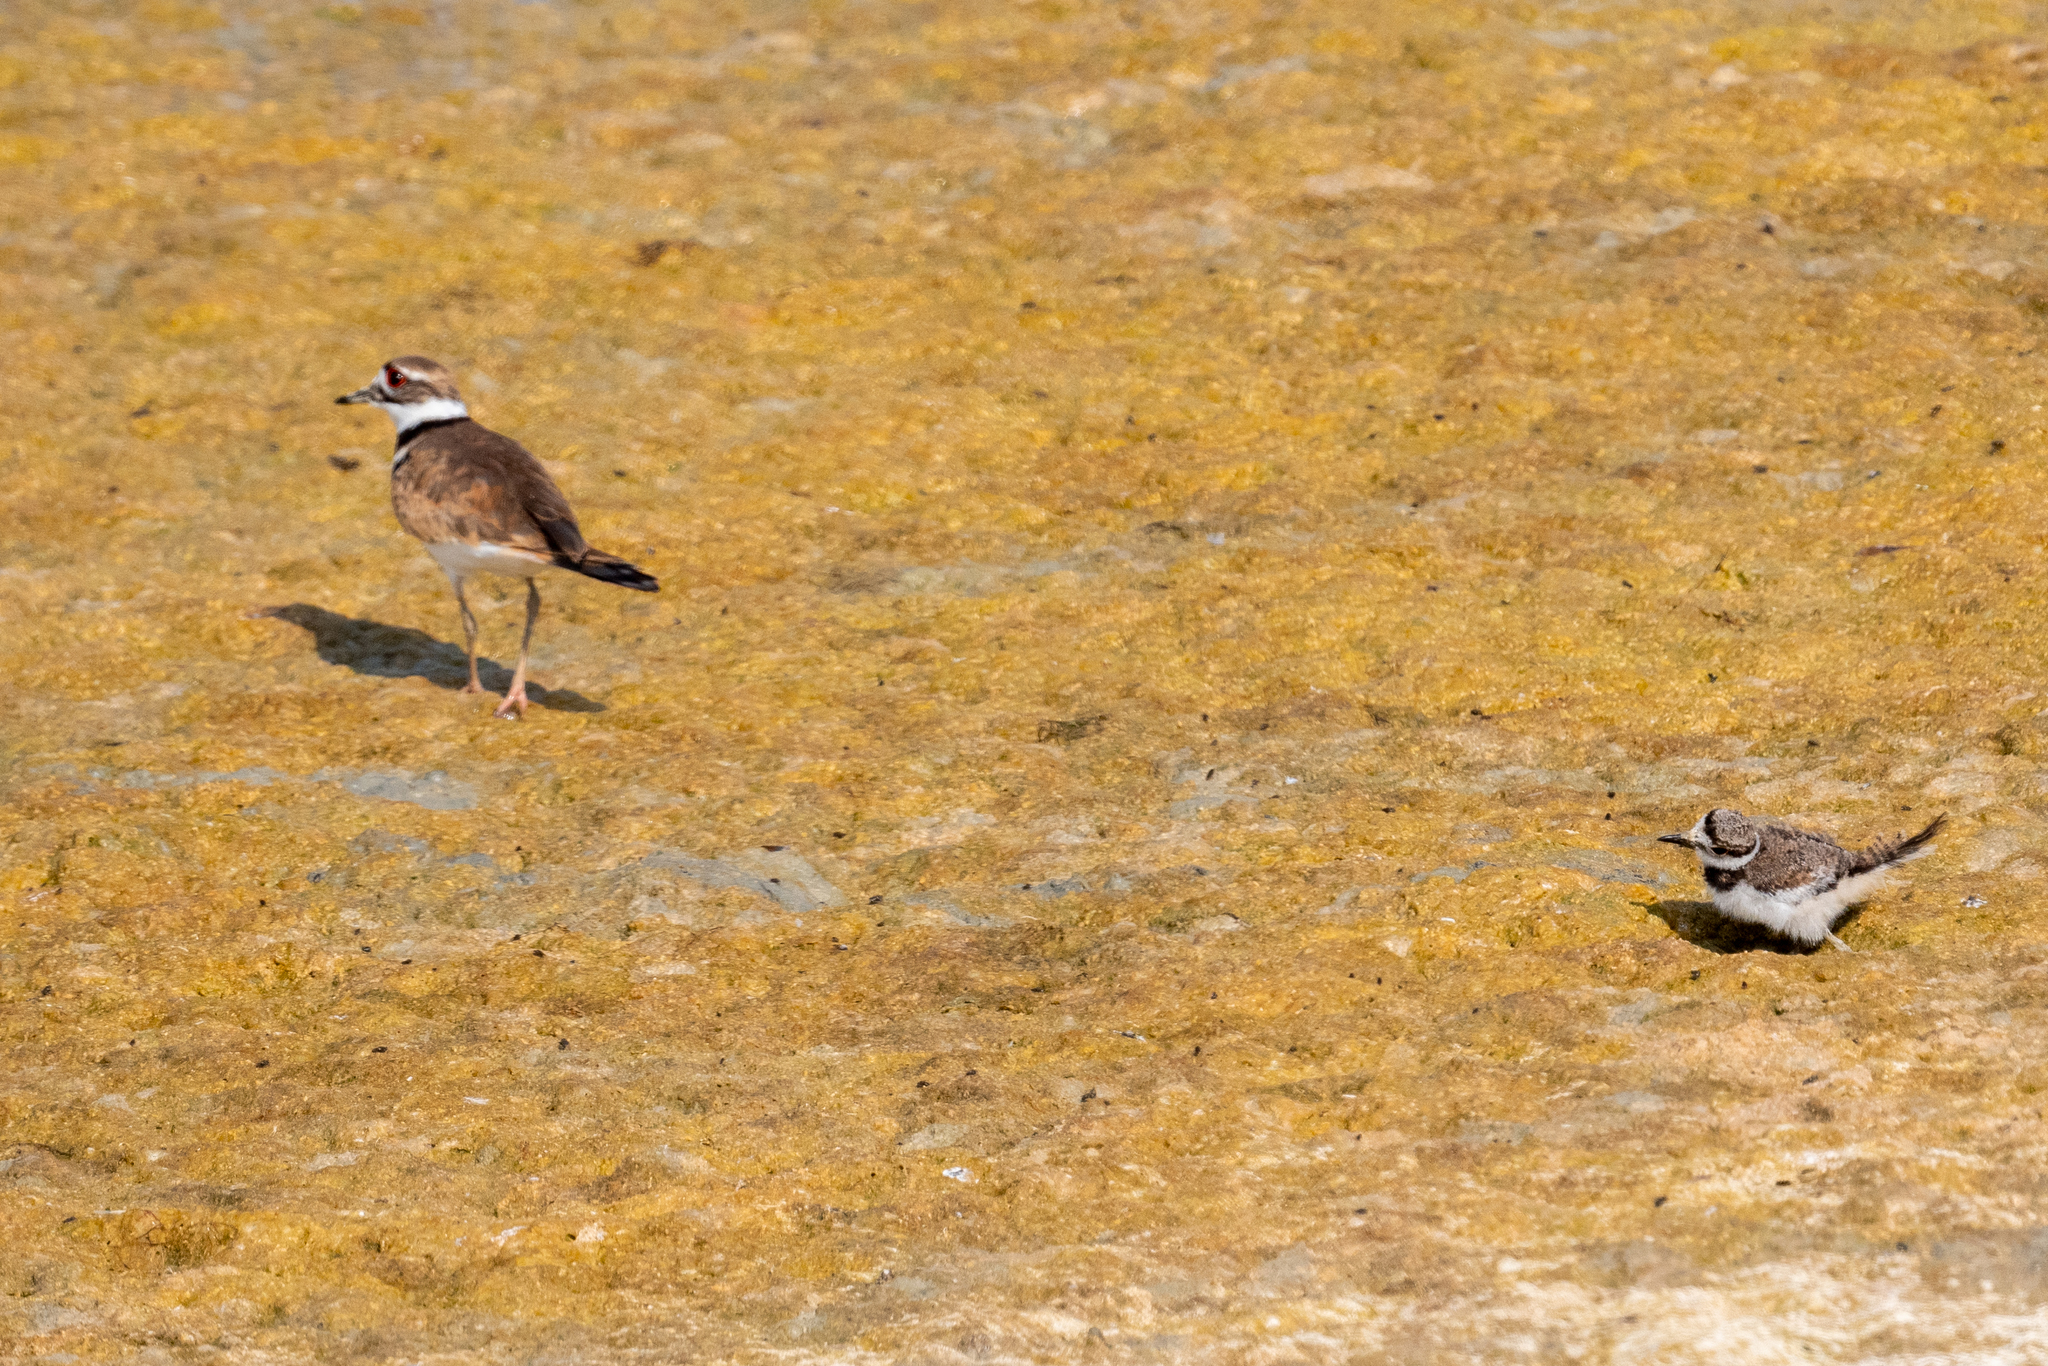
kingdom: Animalia
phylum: Chordata
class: Aves
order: Charadriiformes
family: Charadriidae
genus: Charadrius
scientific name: Charadrius vociferus
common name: Killdeer
